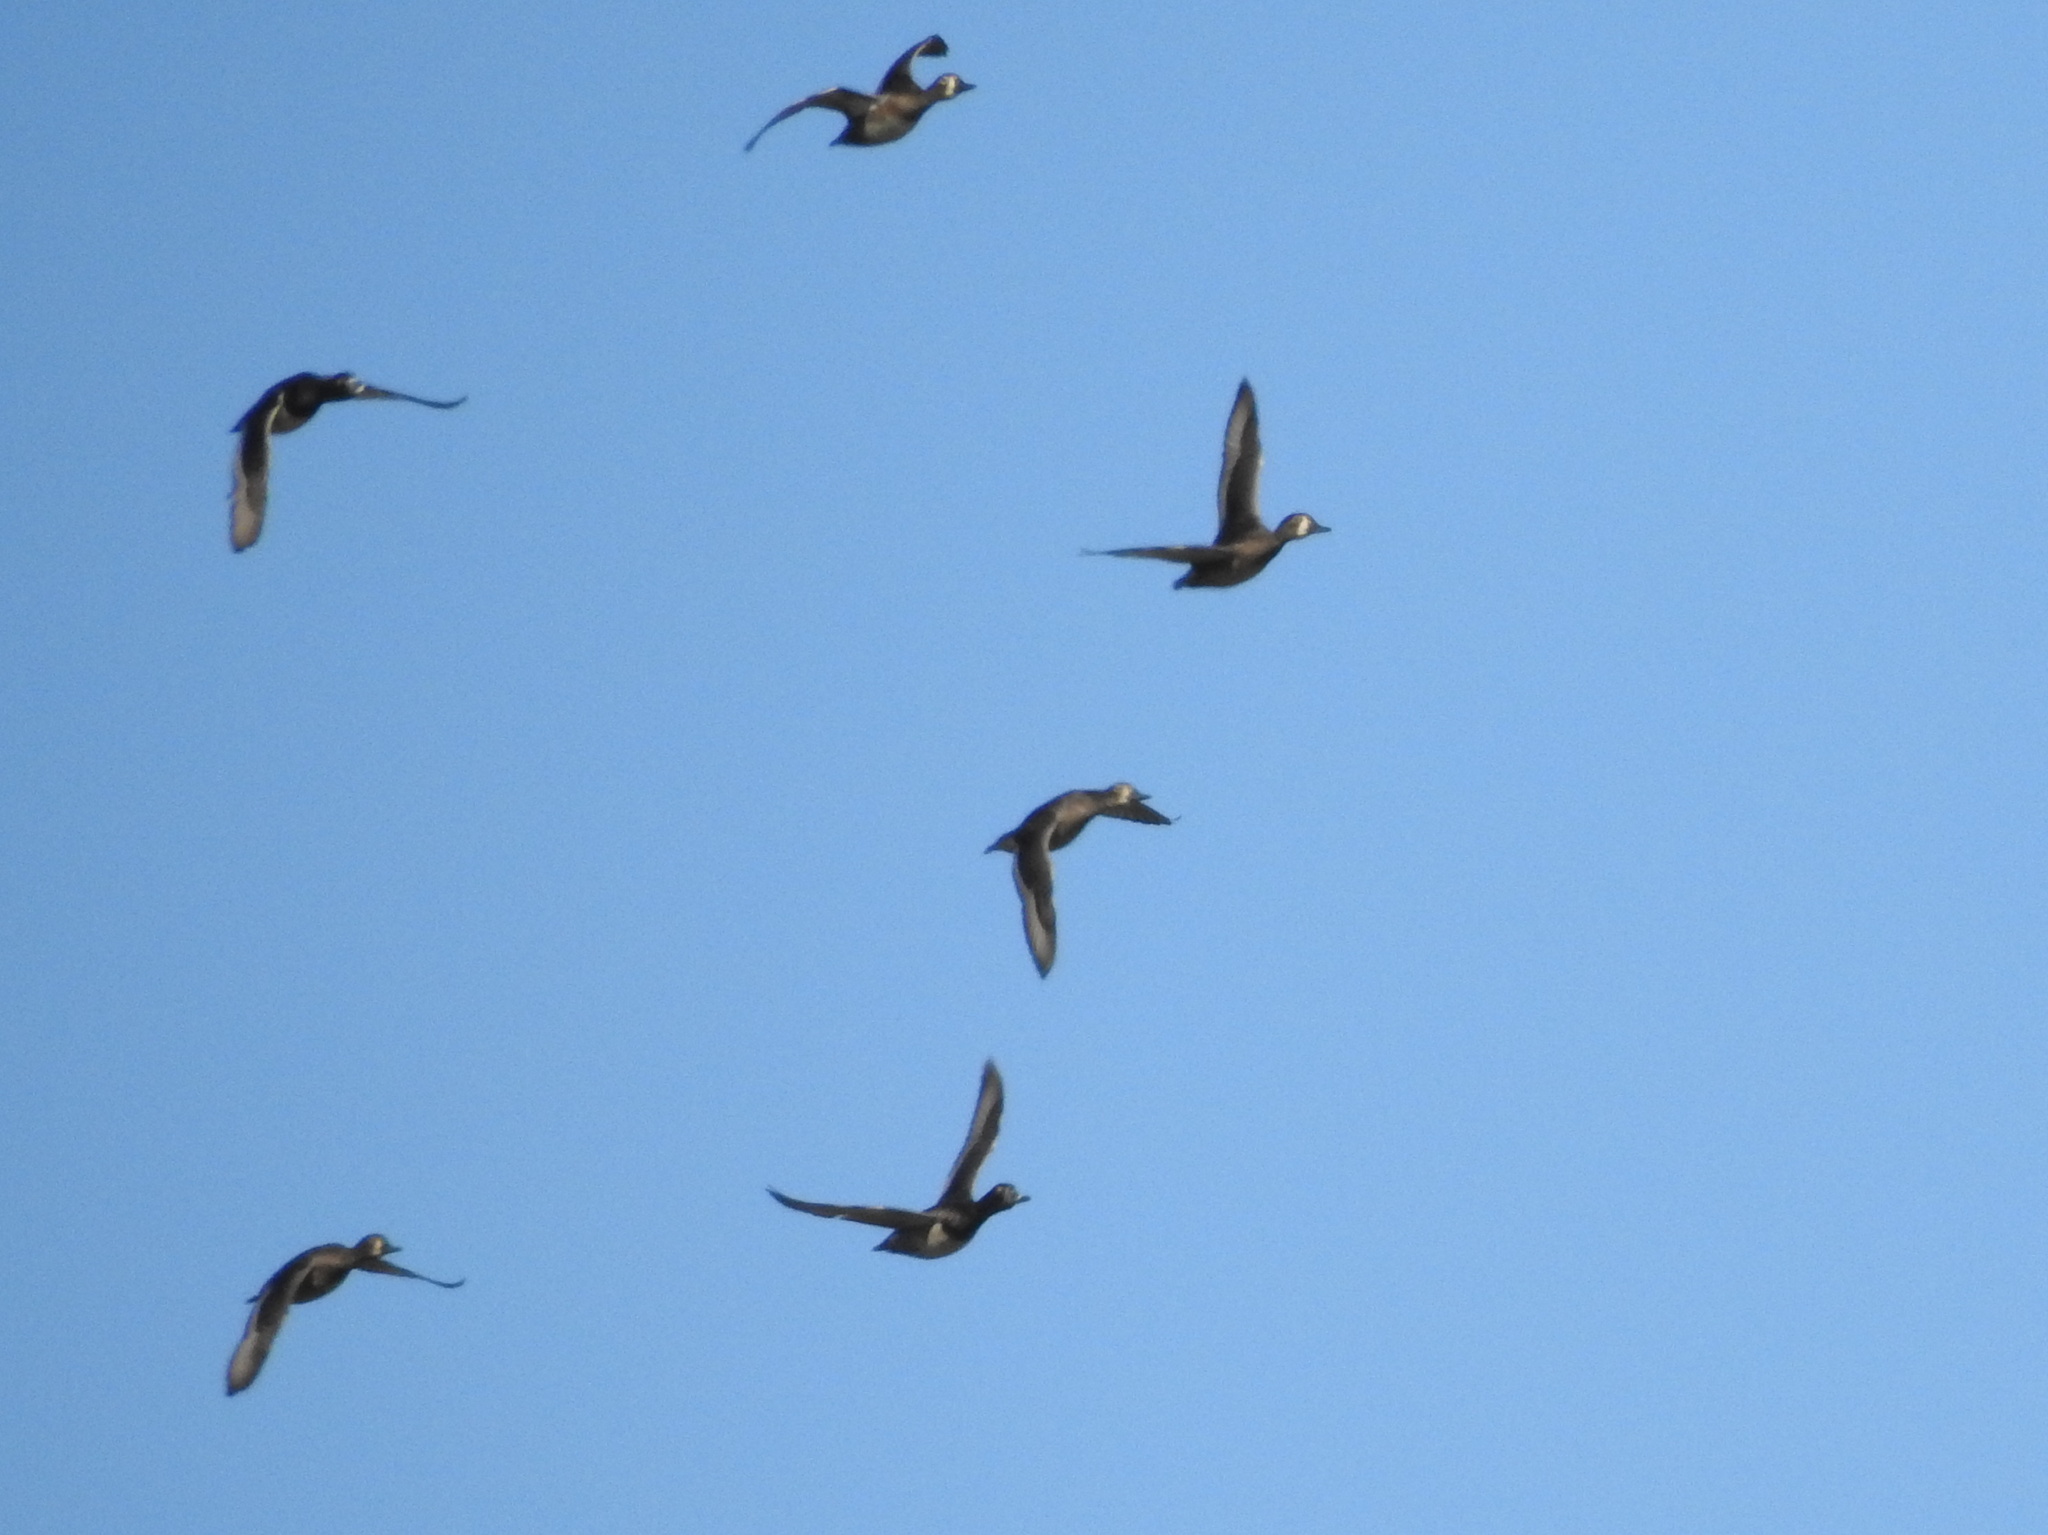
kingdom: Animalia
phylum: Chordata
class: Aves
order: Anseriformes
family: Anatidae
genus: Aythya
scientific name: Aythya collaris
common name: Ring-necked duck
